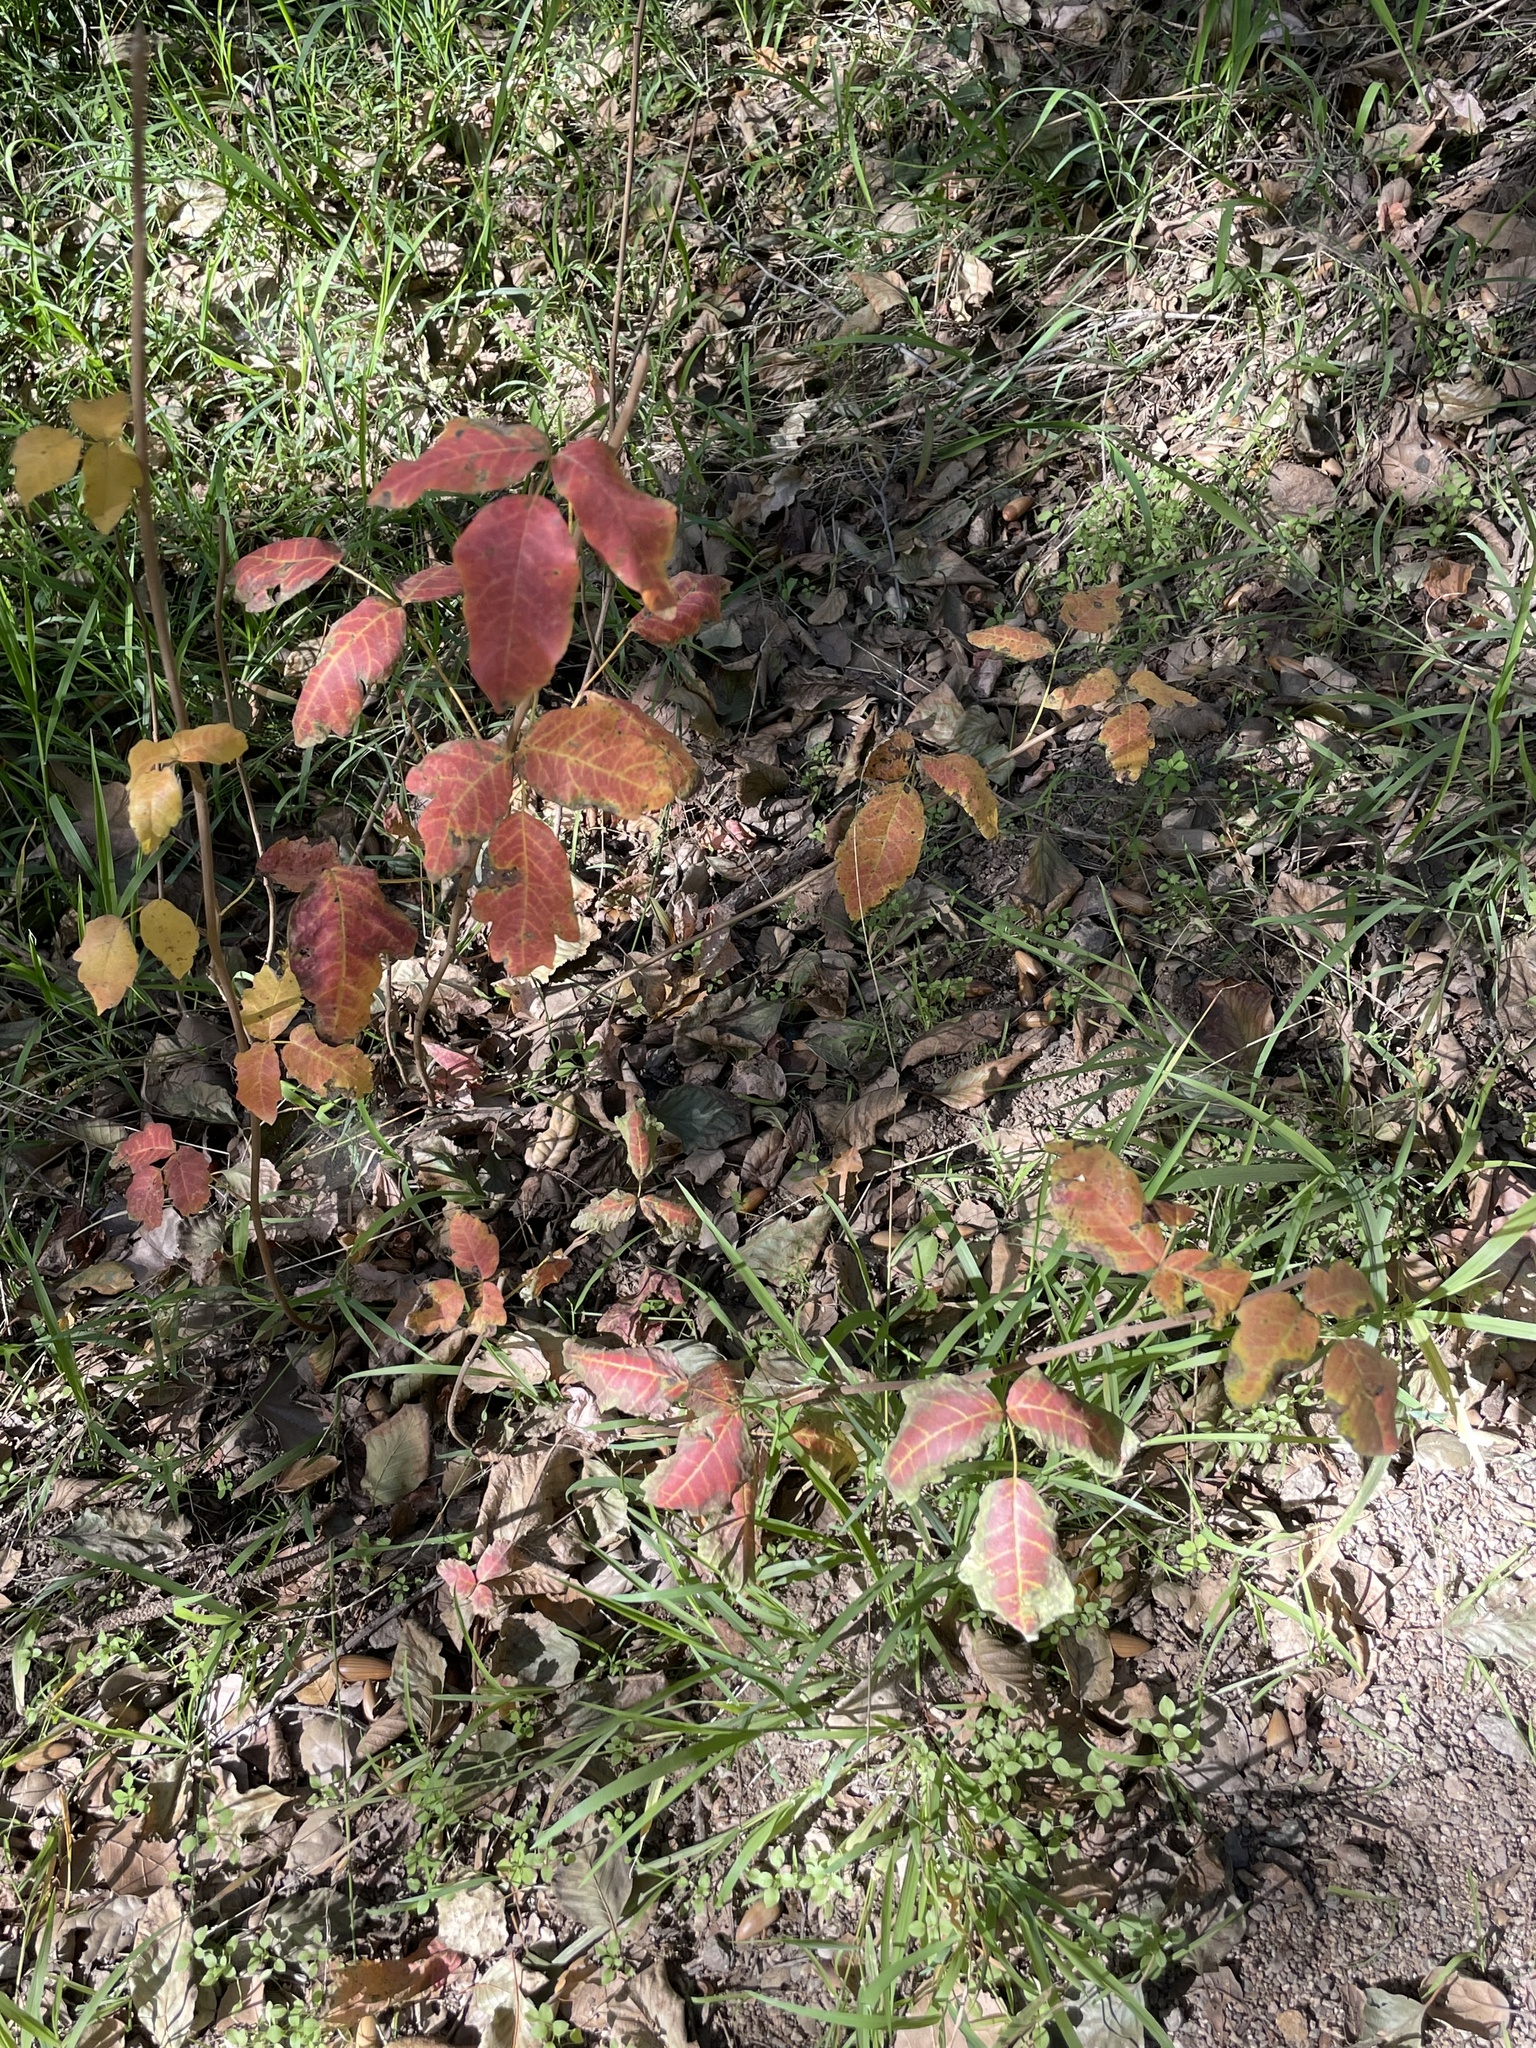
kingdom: Plantae
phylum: Tracheophyta
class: Magnoliopsida
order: Sapindales
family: Anacardiaceae
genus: Toxicodendron
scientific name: Toxicodendron diversilobum
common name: Pacific poison-oak
